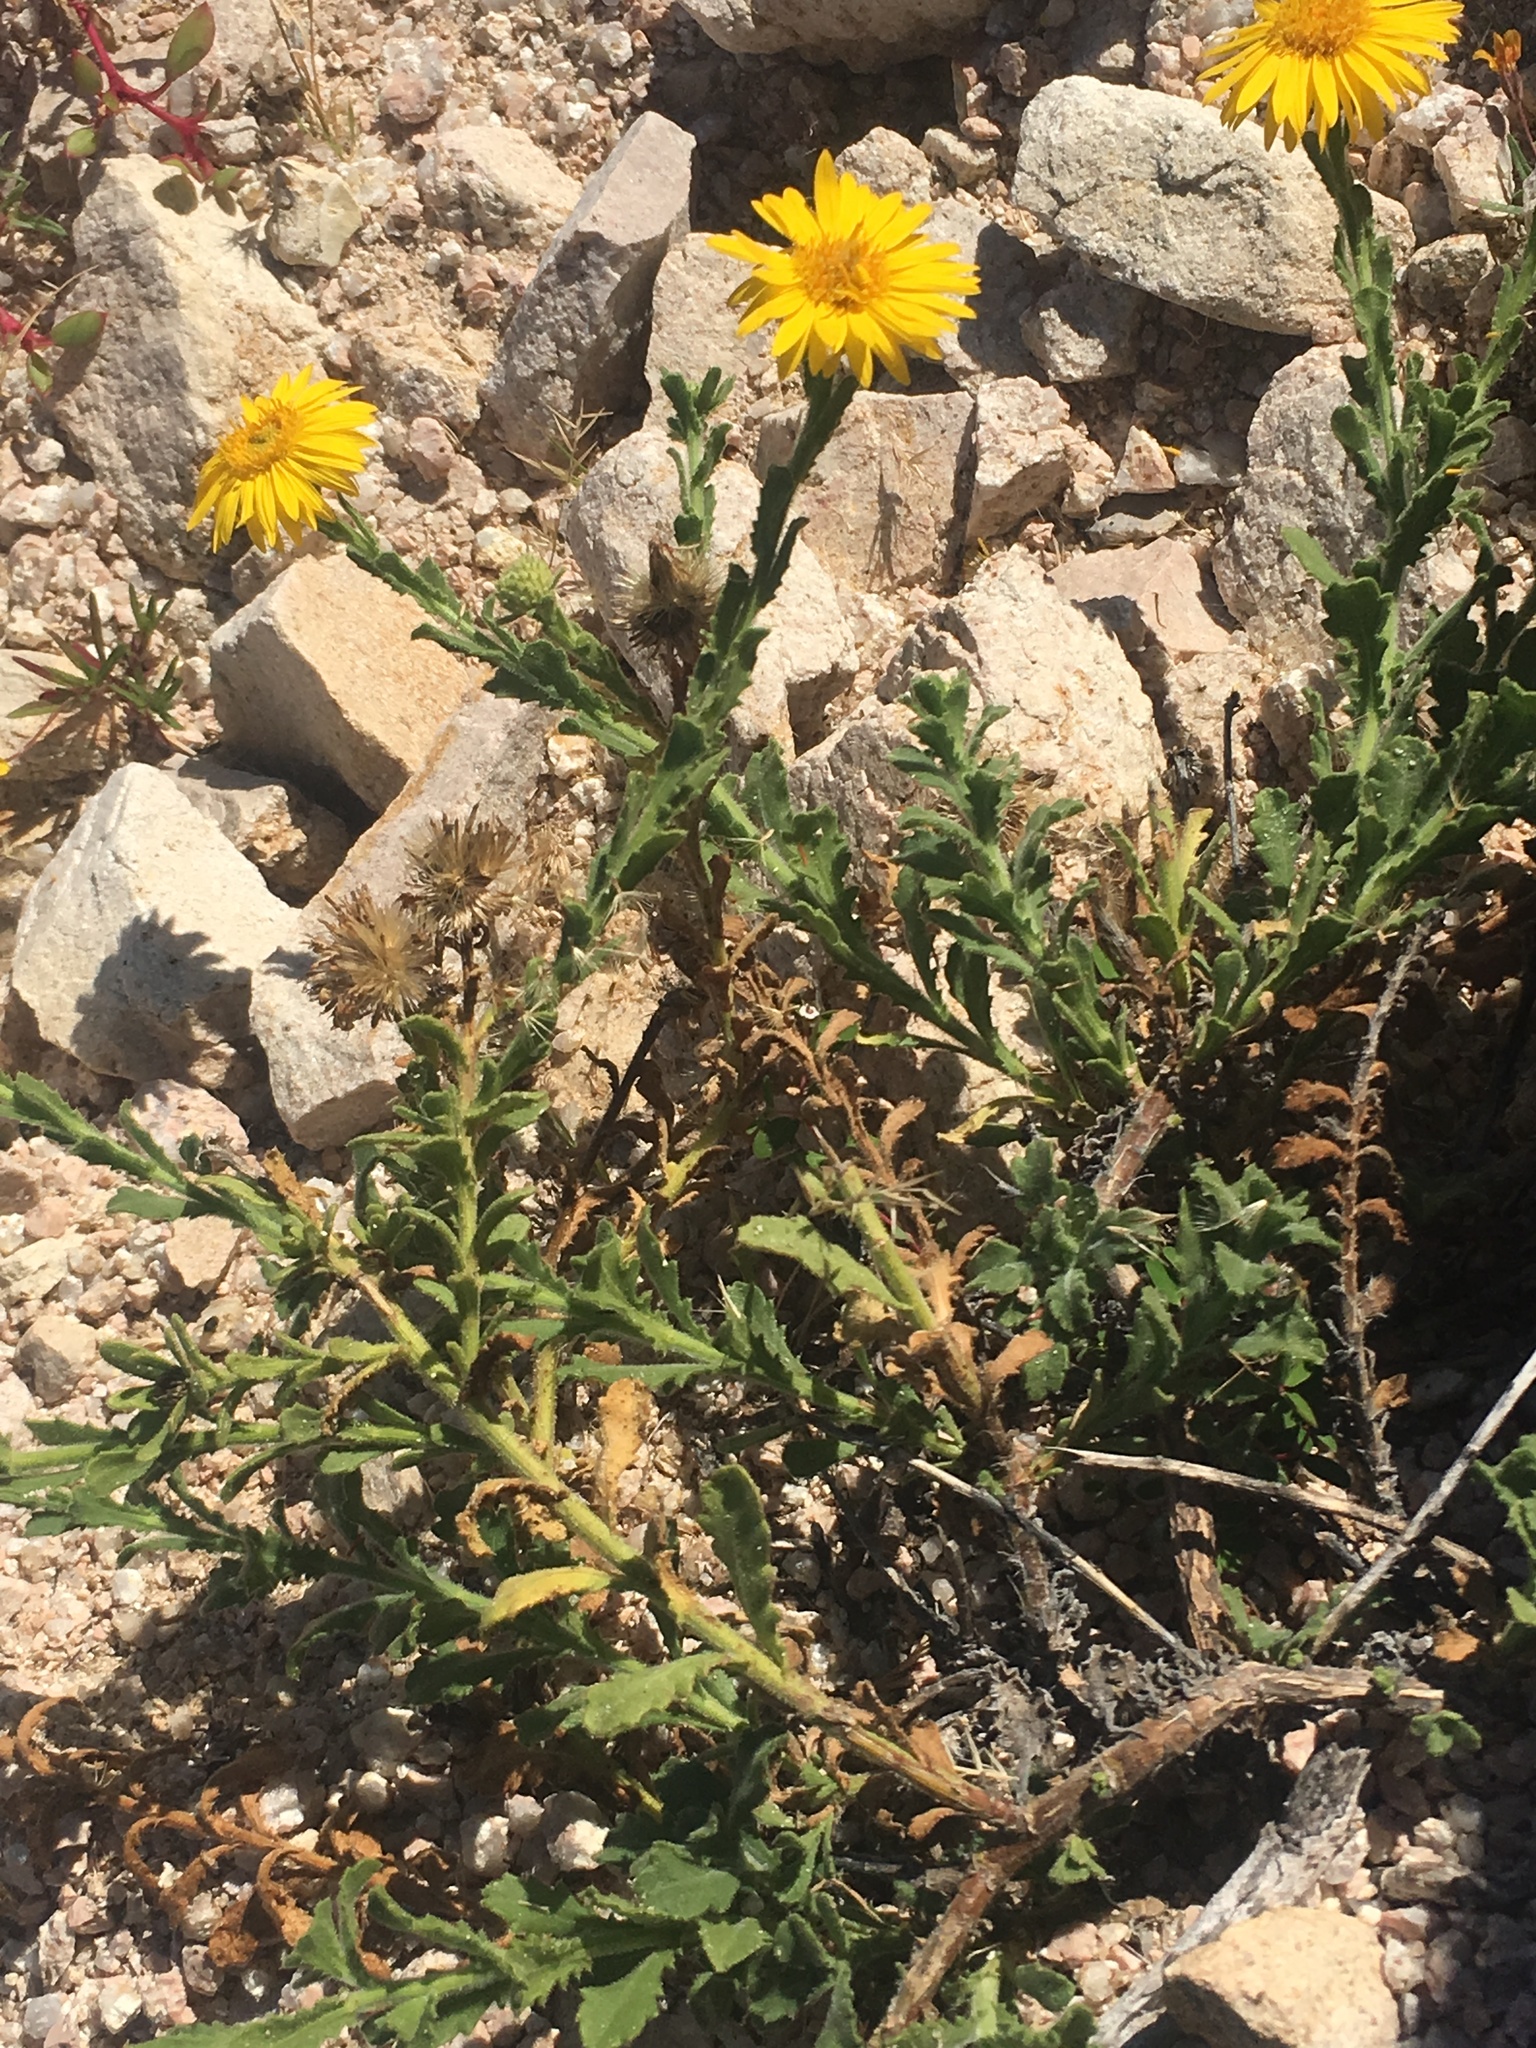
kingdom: Plantae
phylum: Tracheophyta
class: Magnoliopsida
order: Asterales
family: Asteraceae
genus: Xanthisma
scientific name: Xanthisma arenarium
